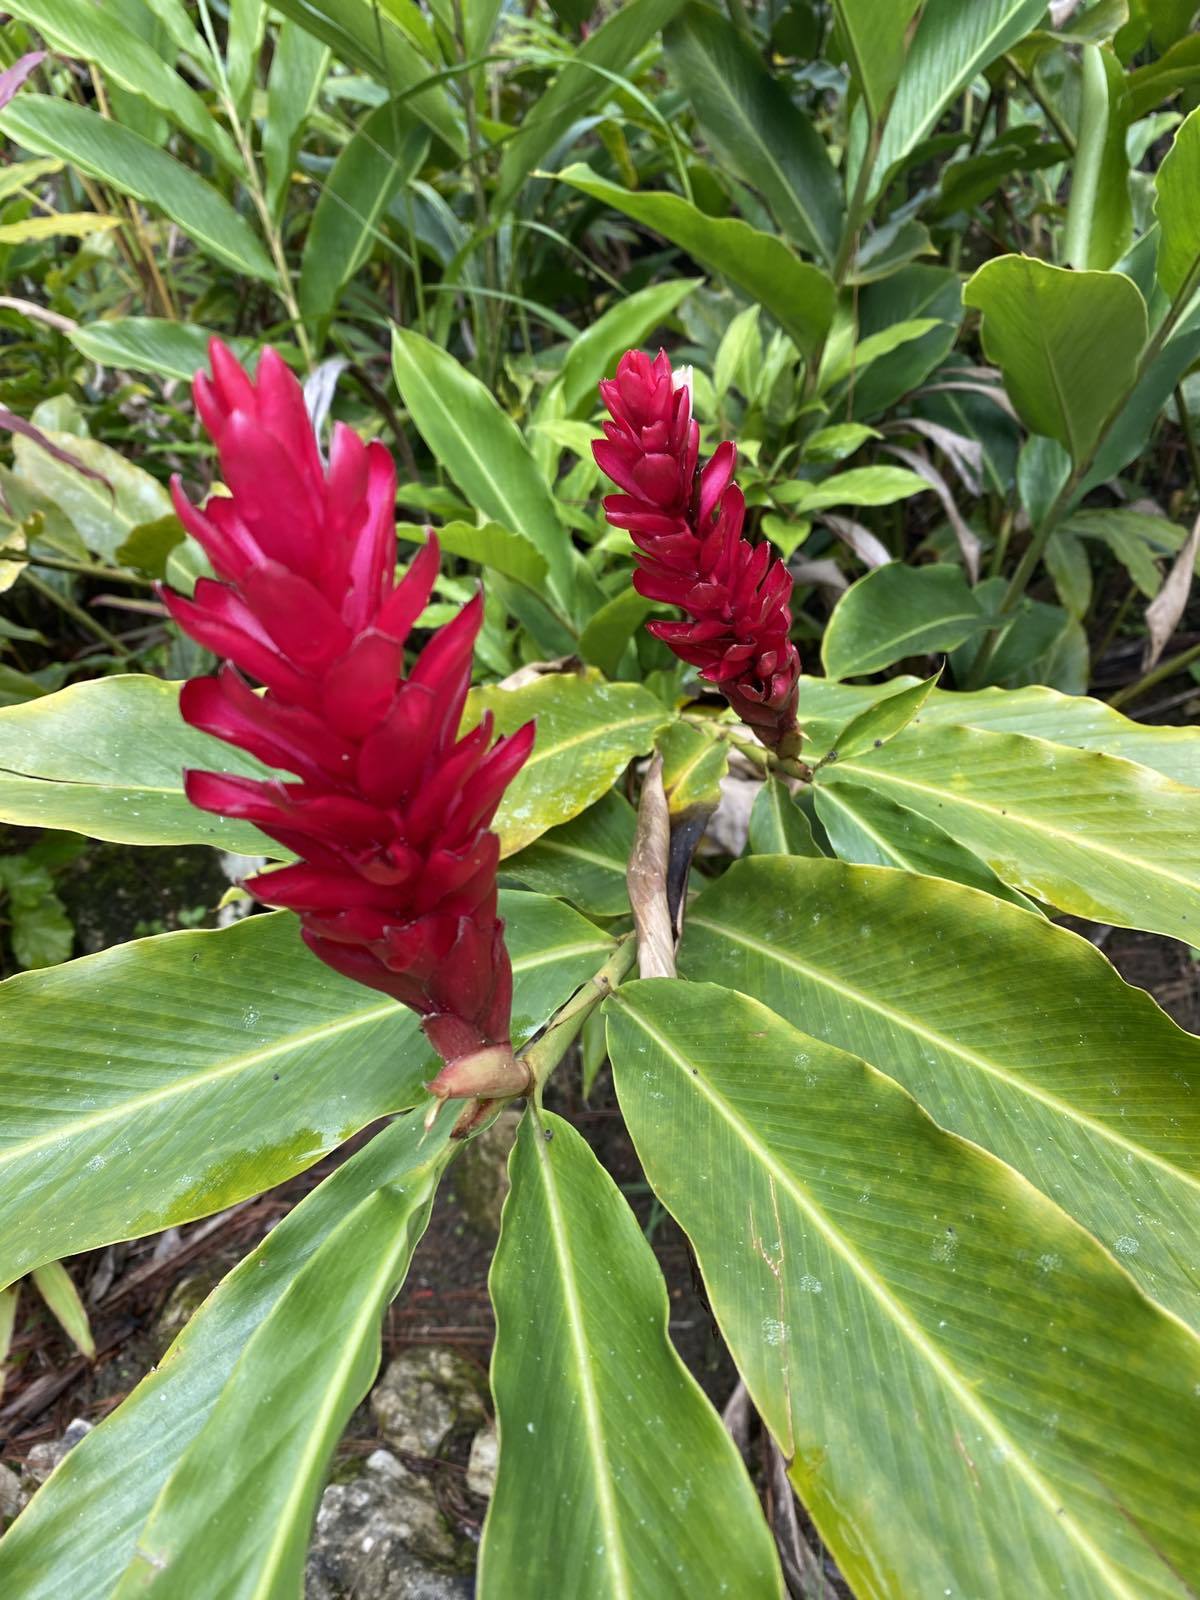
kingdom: Plantae
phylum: Tracheophyta
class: Liliopsida
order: Zingiberales
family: Zingiberaceae
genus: Alpinia
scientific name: Alpinia purpurata
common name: Red ginger
